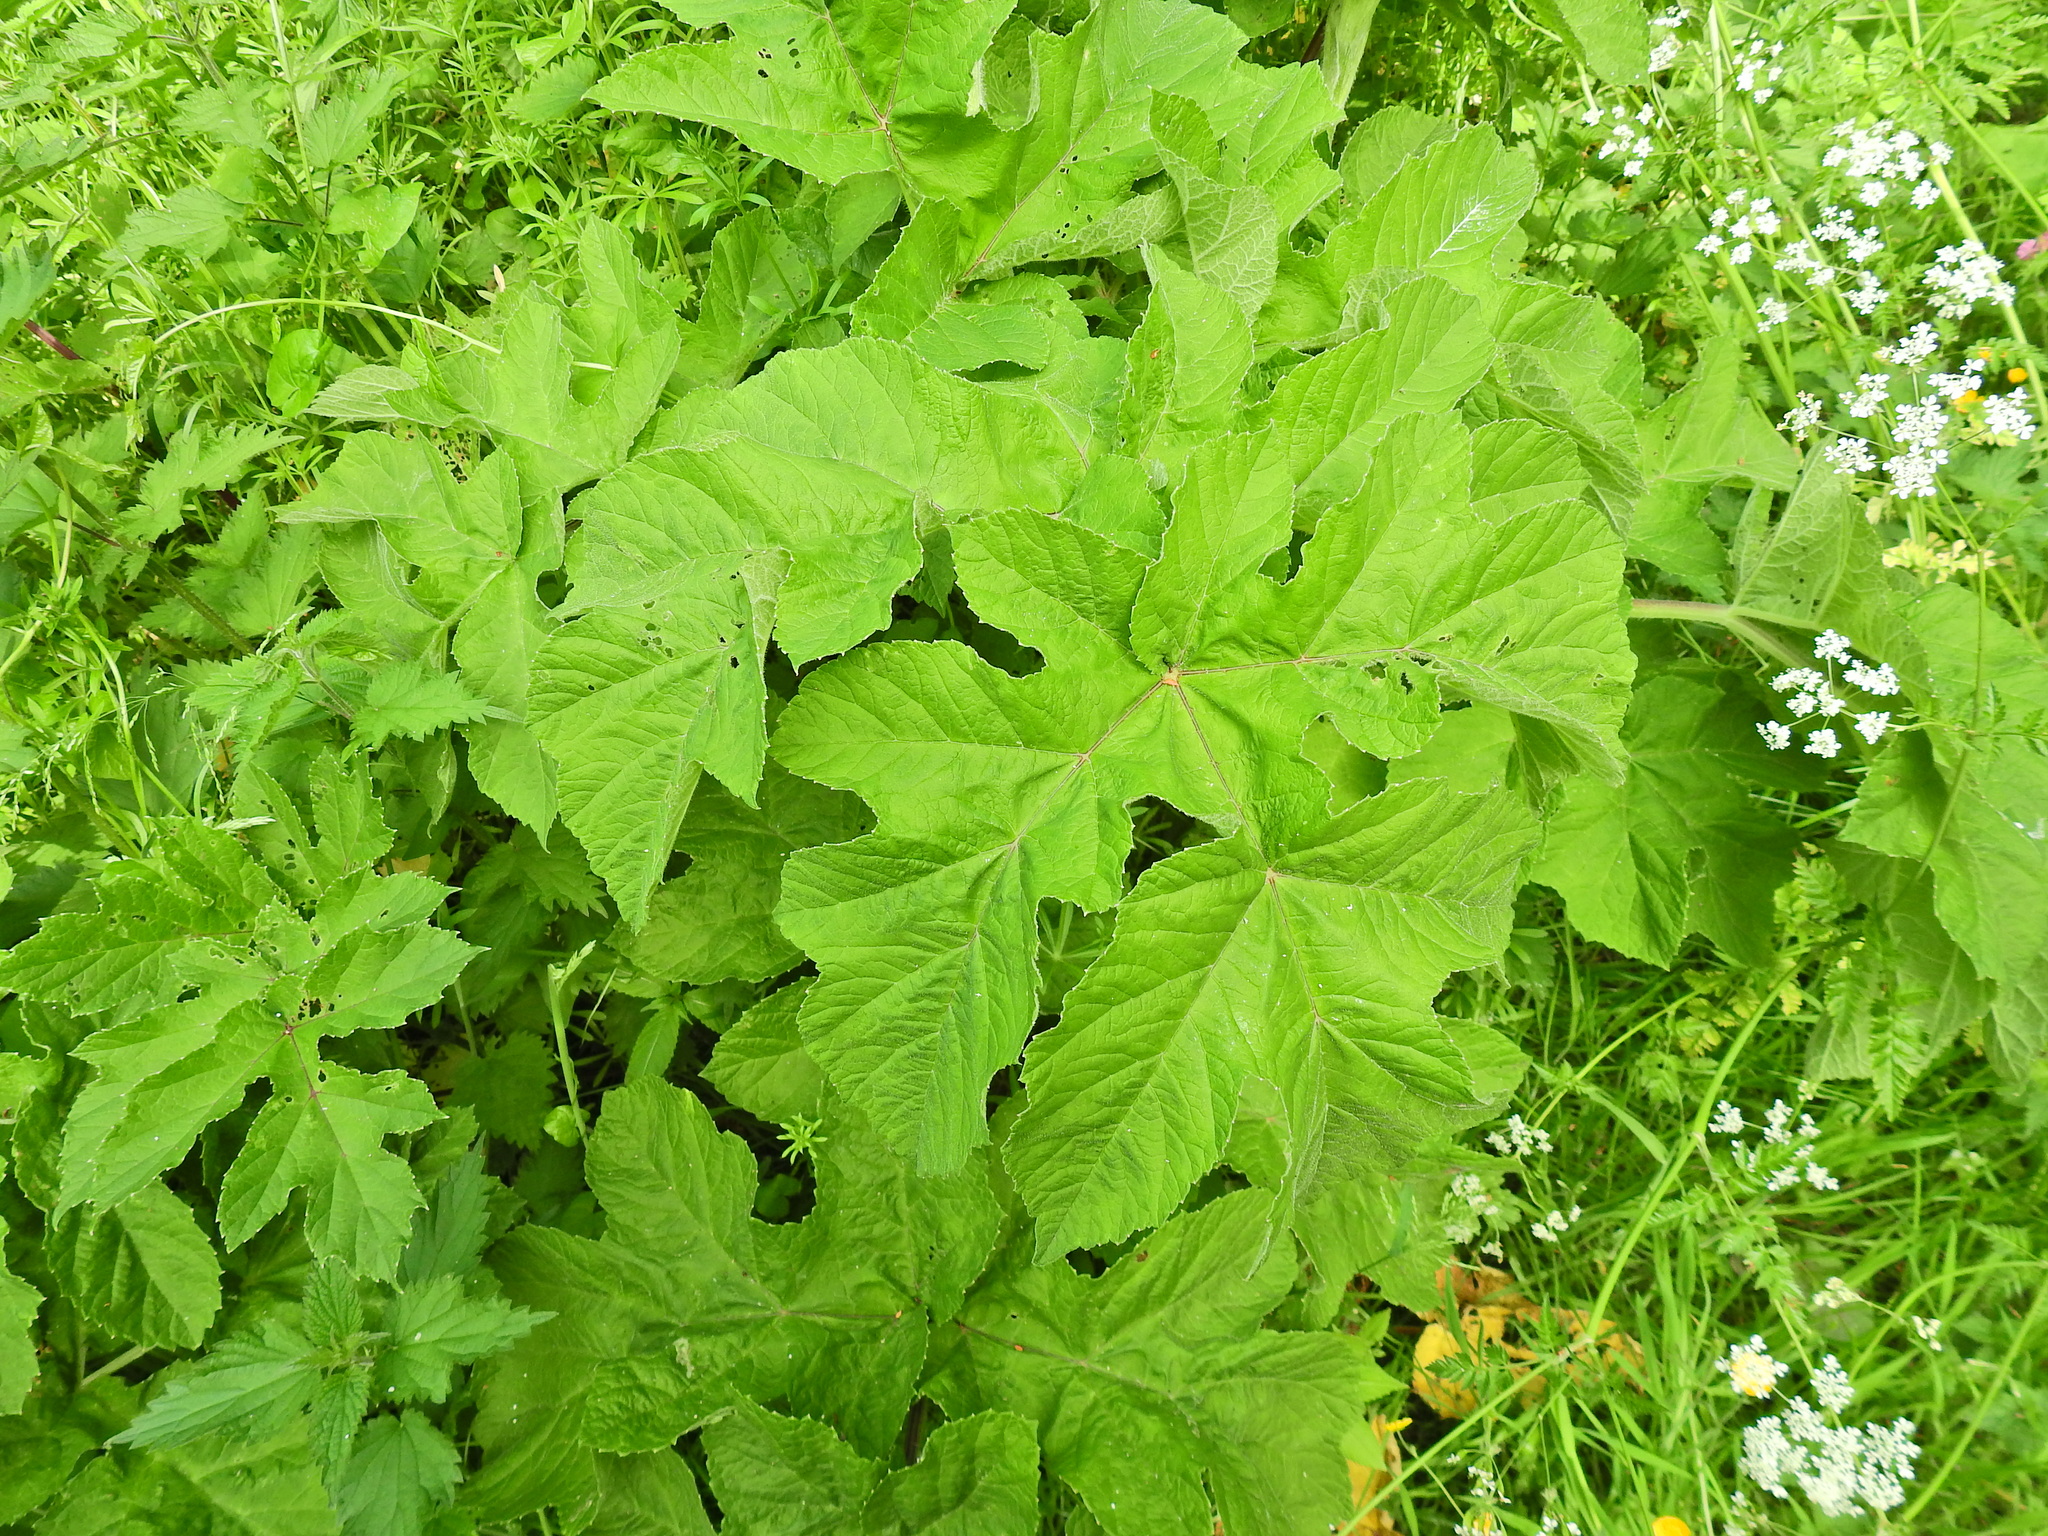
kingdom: Plantae
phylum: Tracheophyta
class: Magnoliopsida
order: Apiales
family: Apiaceae
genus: Heracleum
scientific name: Heracleum sphondylium
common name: Hogweed
